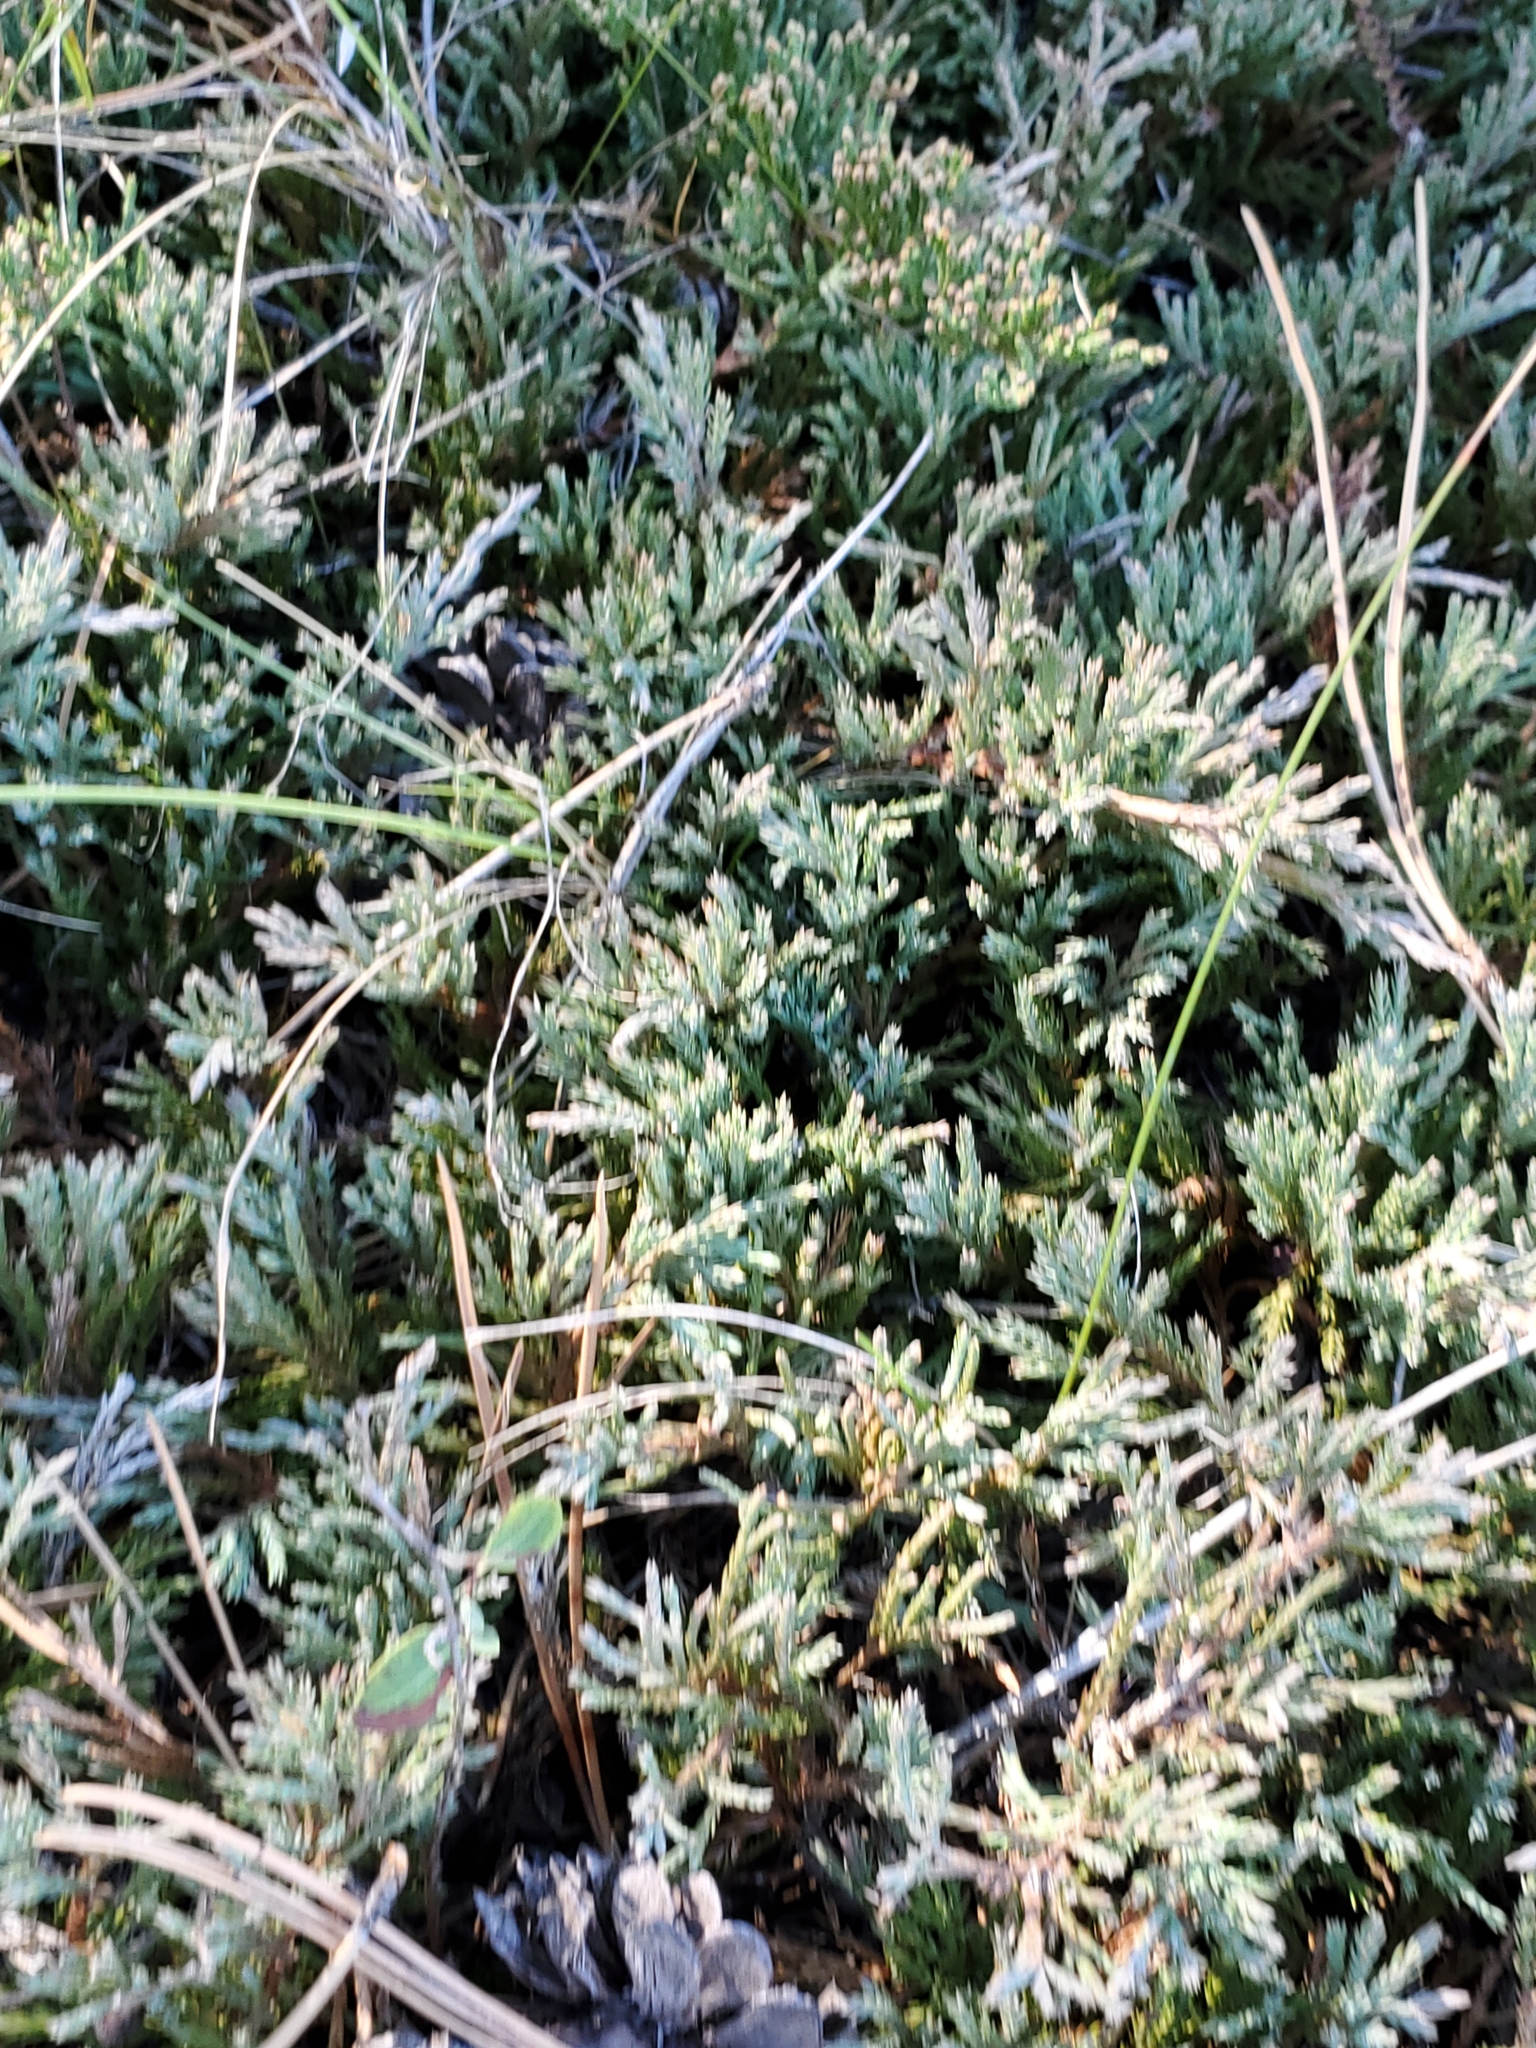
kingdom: Plantae
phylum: Tracheophyta
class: Pinopsida
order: Pinales
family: Cupressaceae
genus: Juniperus
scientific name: Juniperus horizontalis
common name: Creeping juniper
